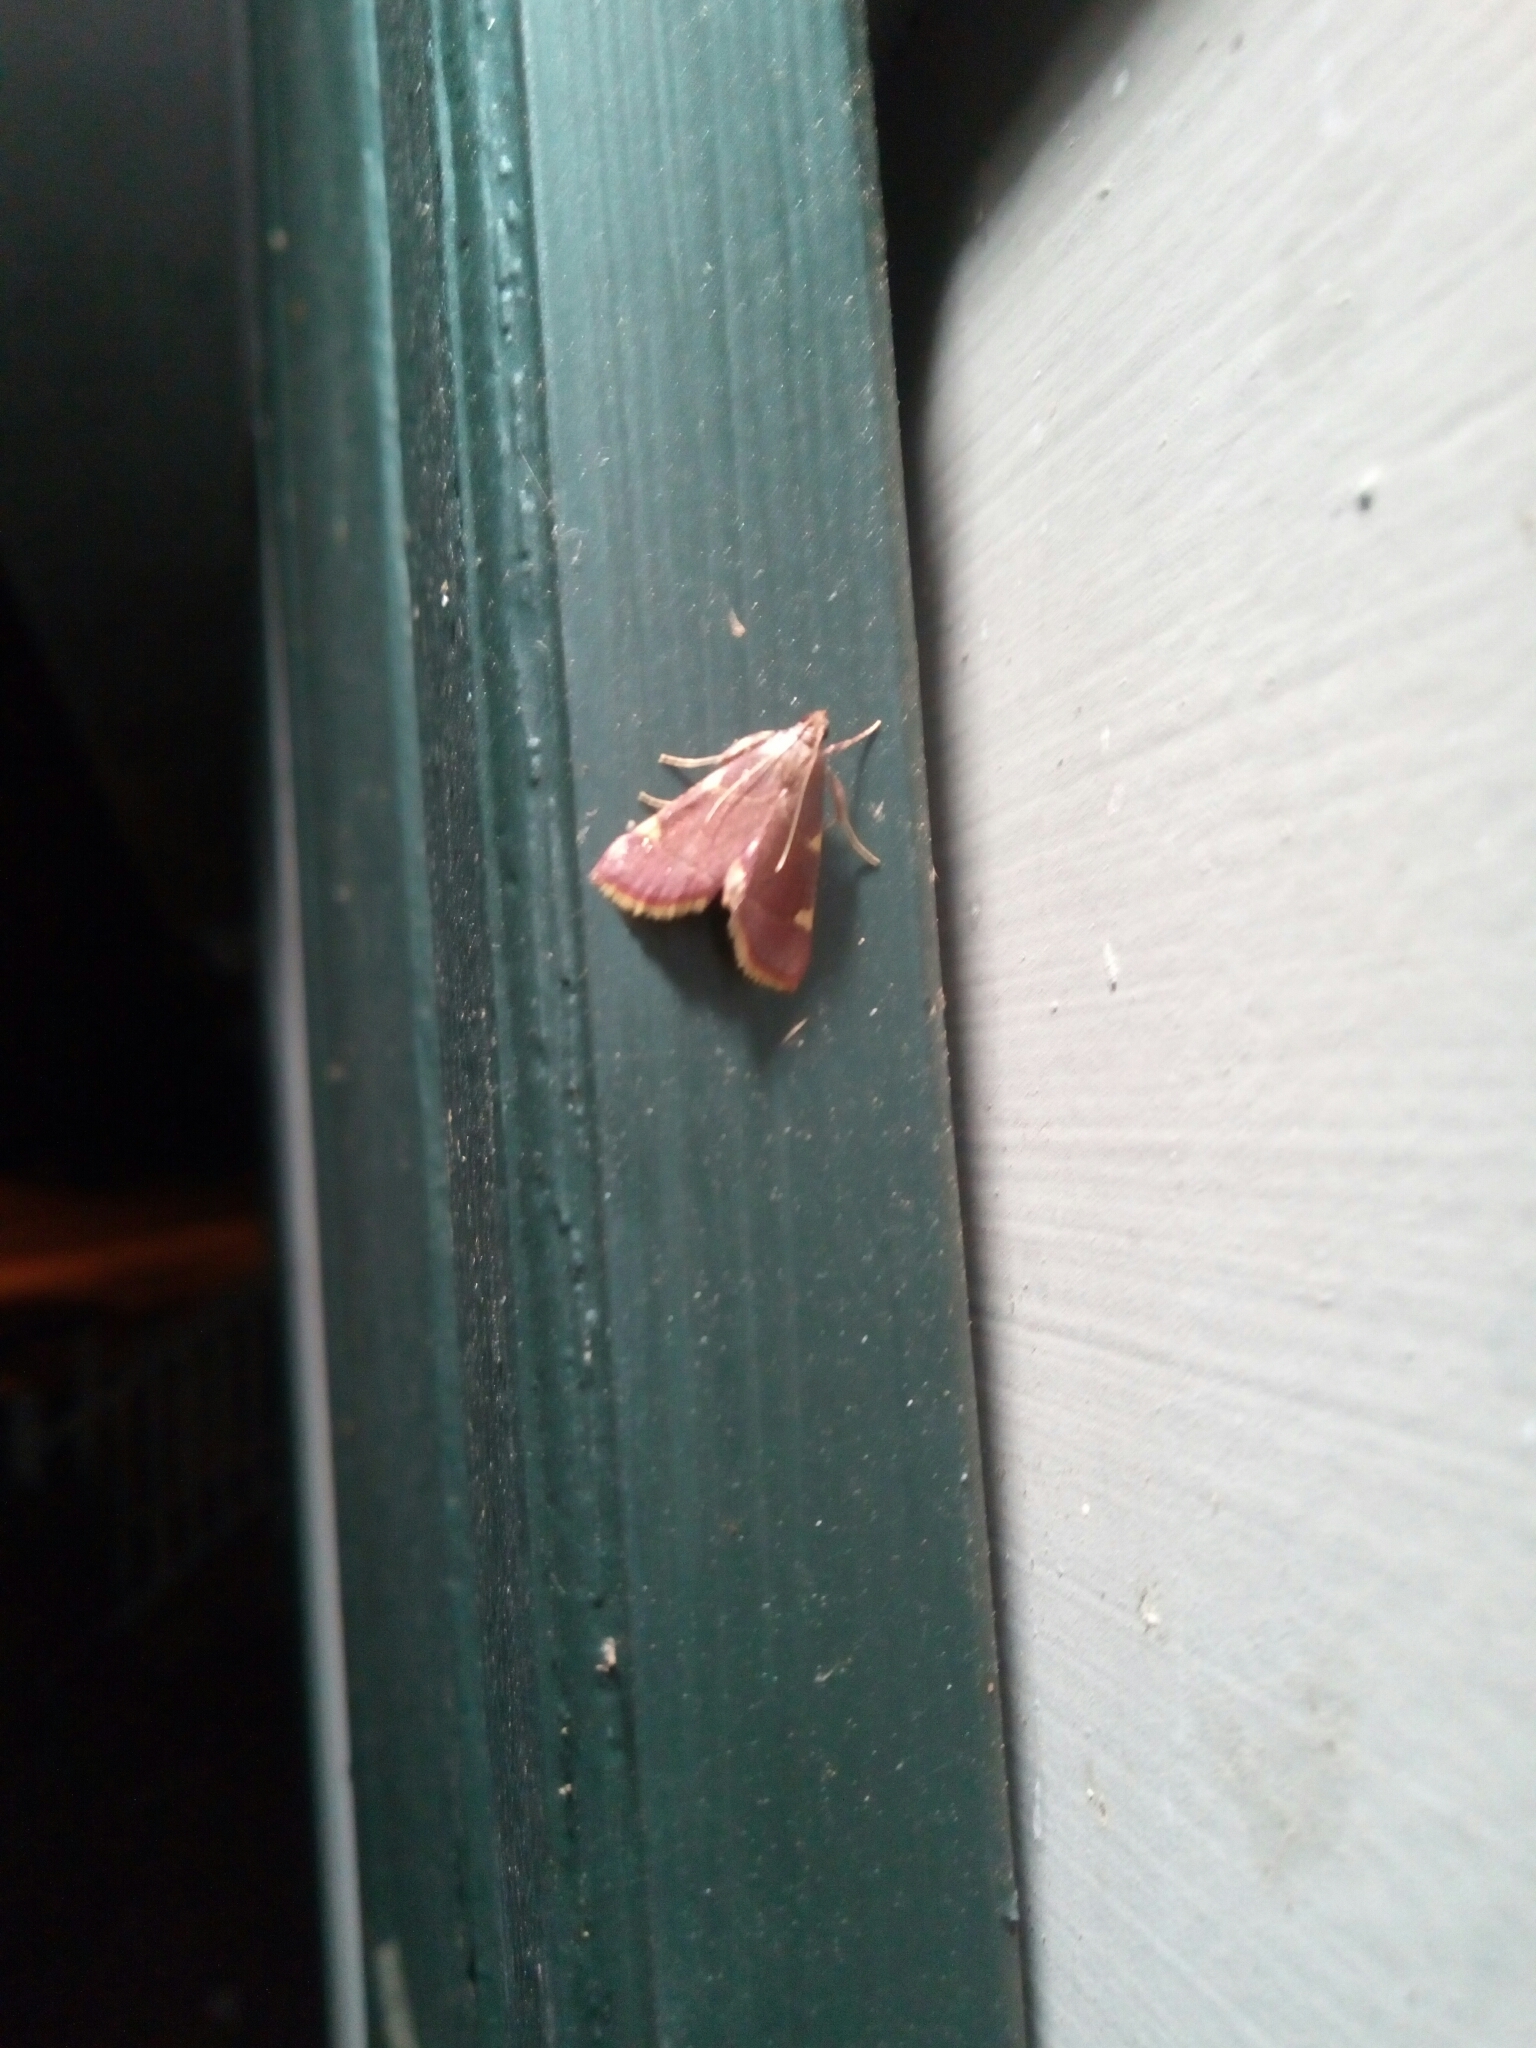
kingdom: Animalia
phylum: Arthropoda
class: Insecta
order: Lepidoptera
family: Pyralidae
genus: Hypsopygia
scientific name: Hypsopygia olinalis
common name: Yellow-fringed dolichomia moth
